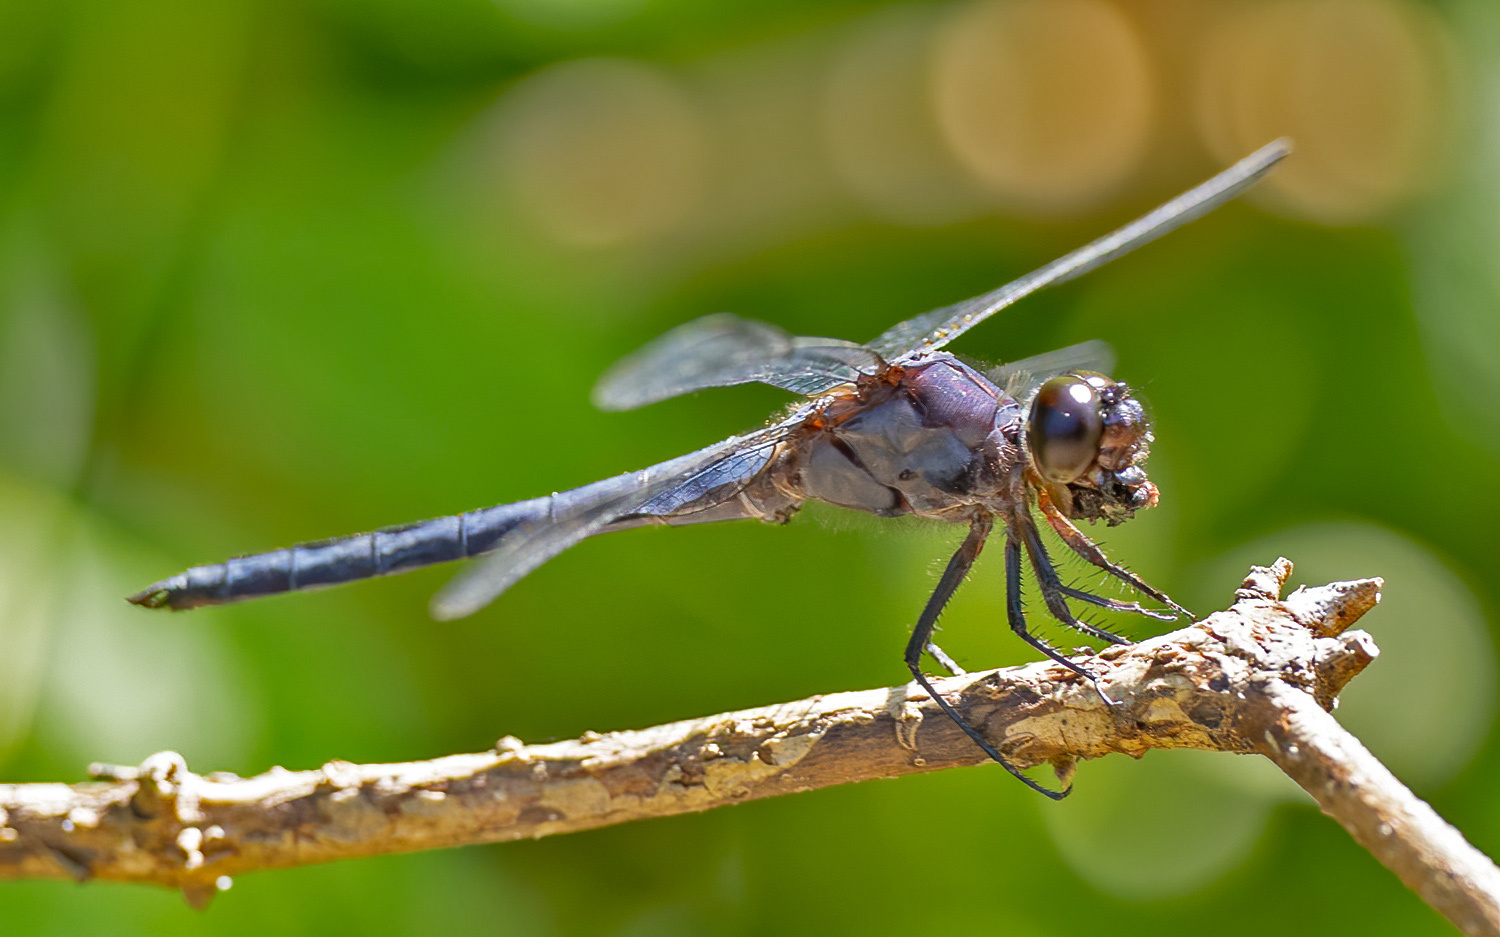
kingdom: Animalia
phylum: Arthropoda
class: Insecta
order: Odonata
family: Libellulidae
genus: Libellula
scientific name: Libellula incesta
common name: Slaty skimmer
